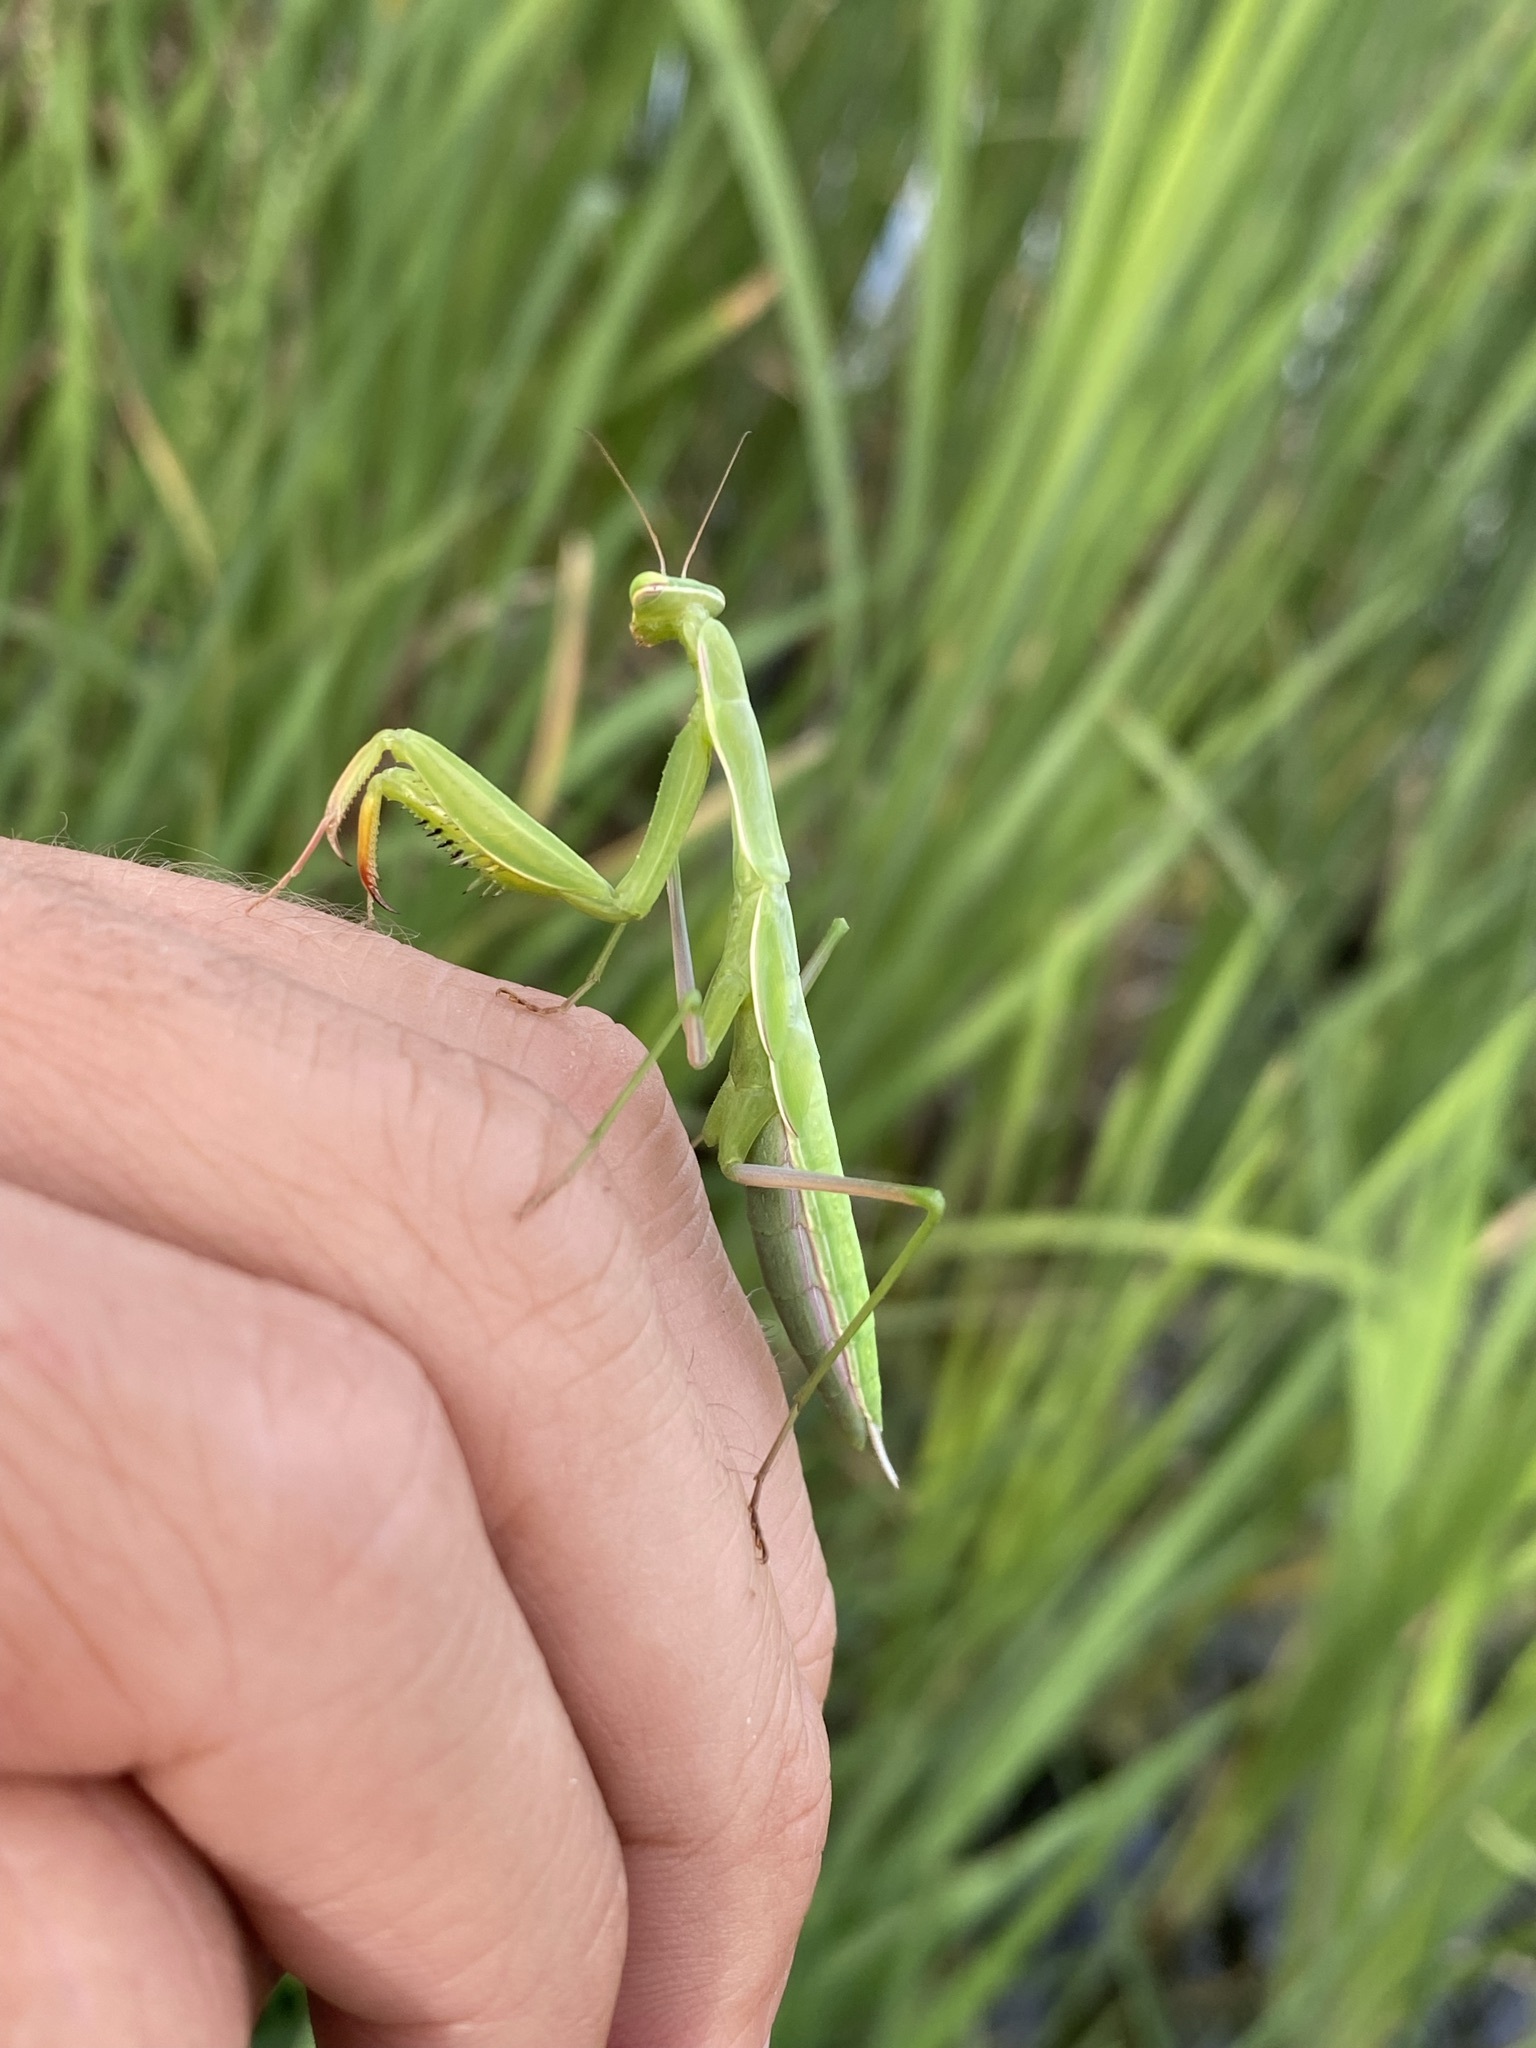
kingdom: Animalia
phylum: Arthropoda
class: Insecta
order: Mantodea
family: Mantidae
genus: Mantis
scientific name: Mantis religiosa
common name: Praying mantis
